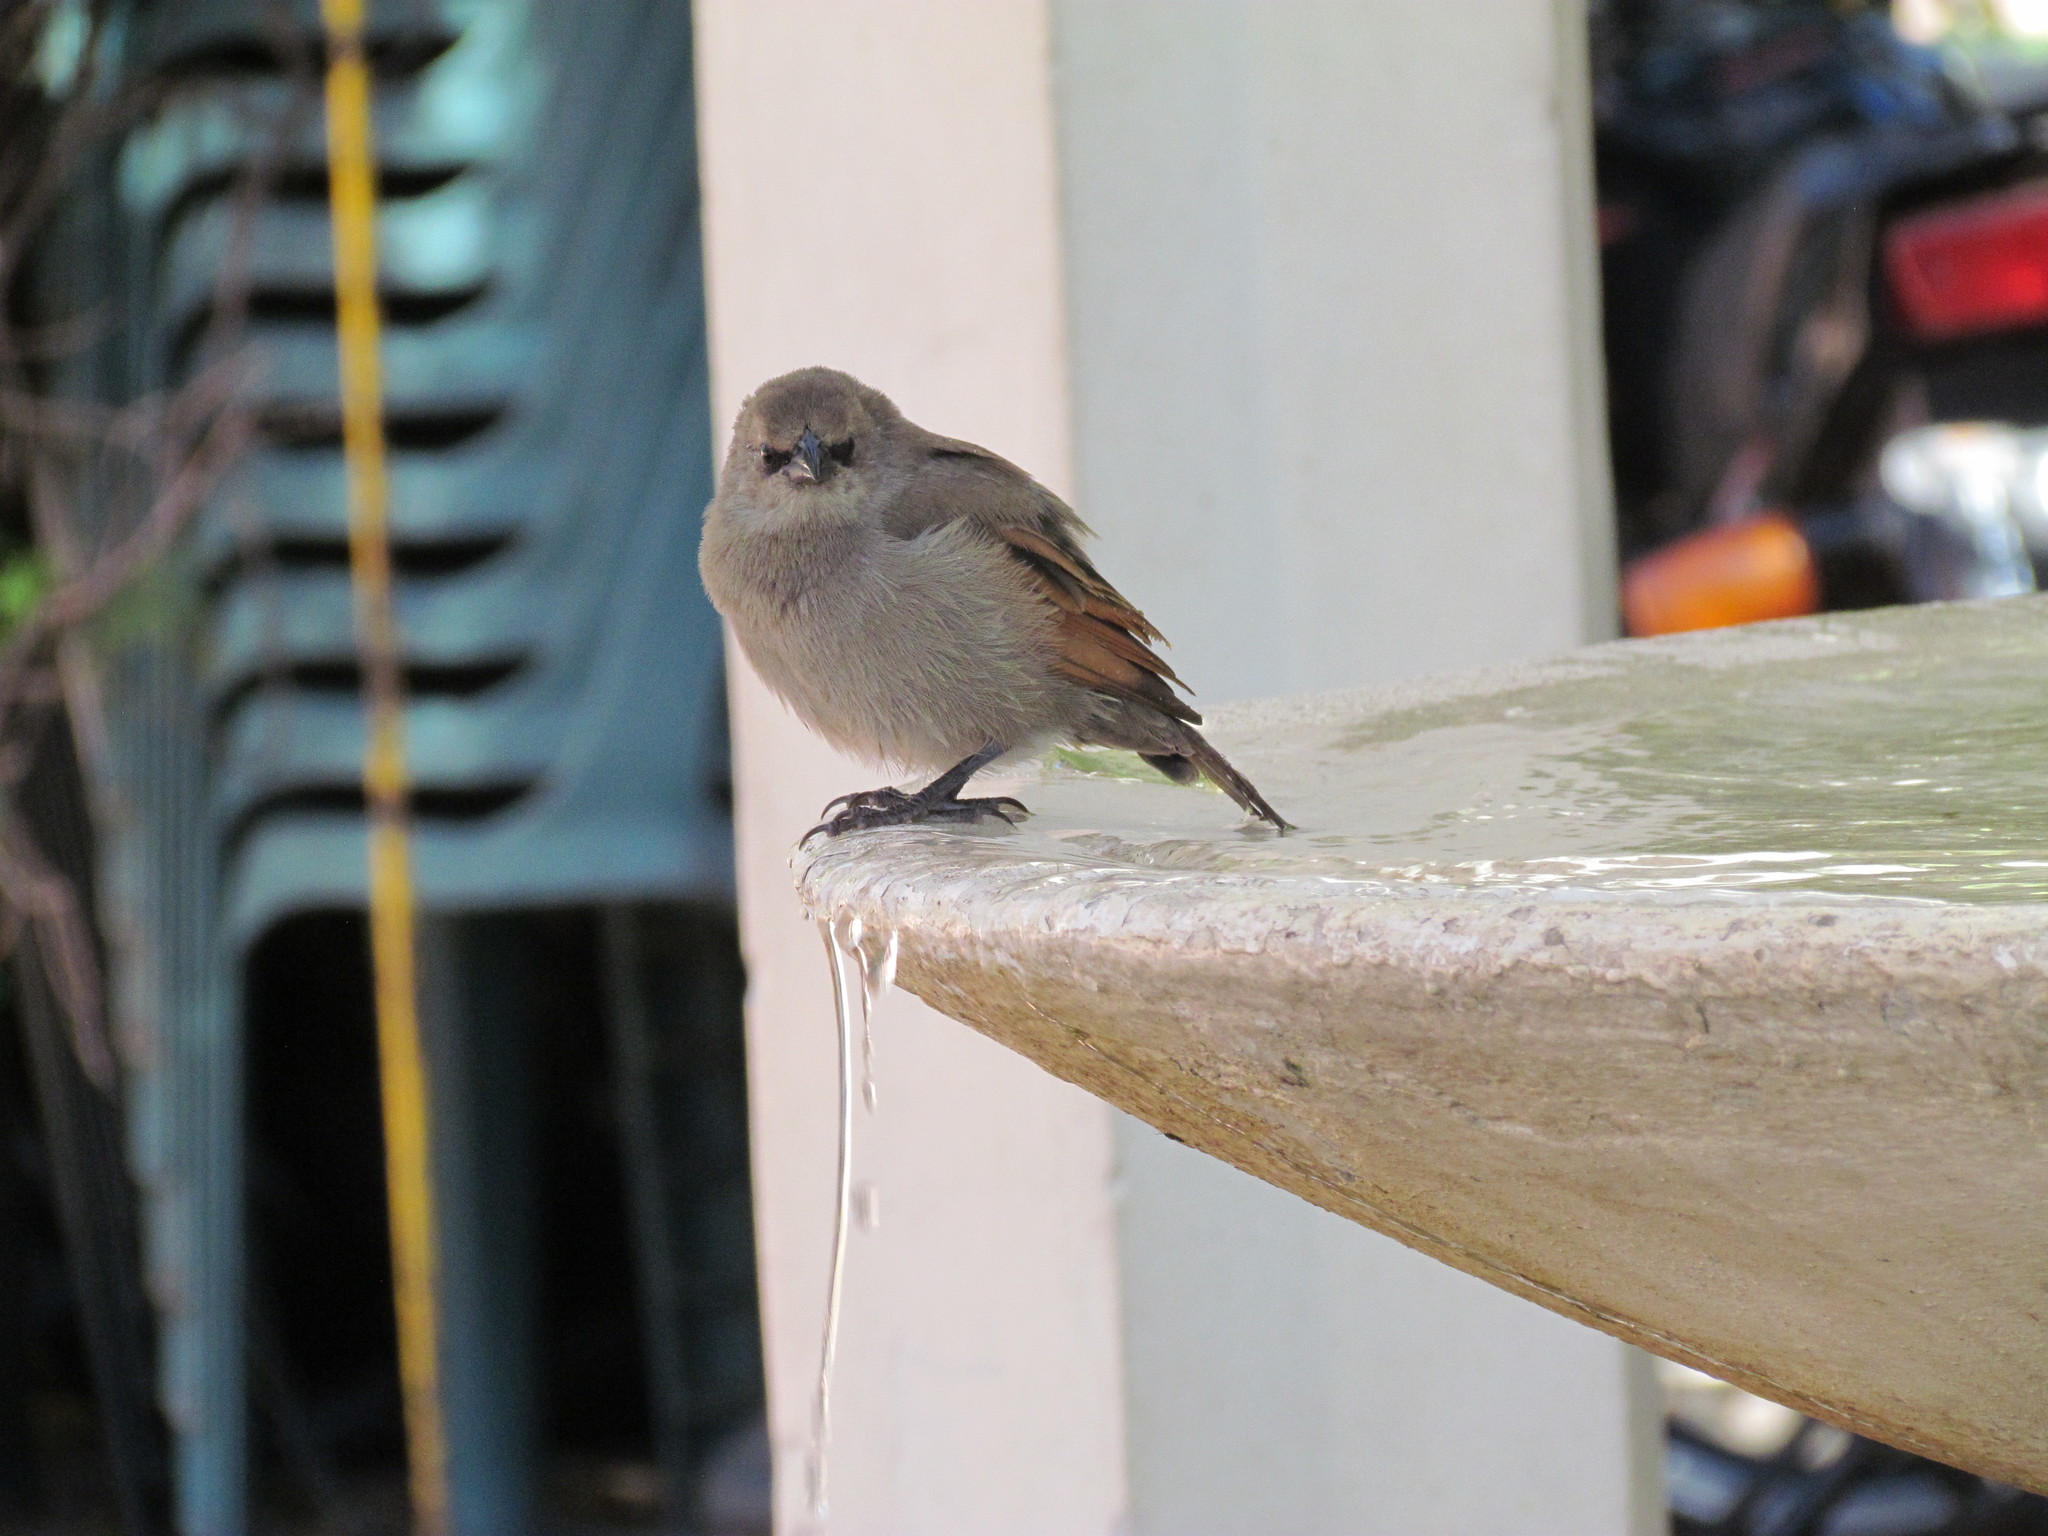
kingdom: Animalia
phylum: Chordata
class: Aves
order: Passeriformes
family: Icteridae
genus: Agelaioides
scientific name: Agelaioides badius
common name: Baywing
